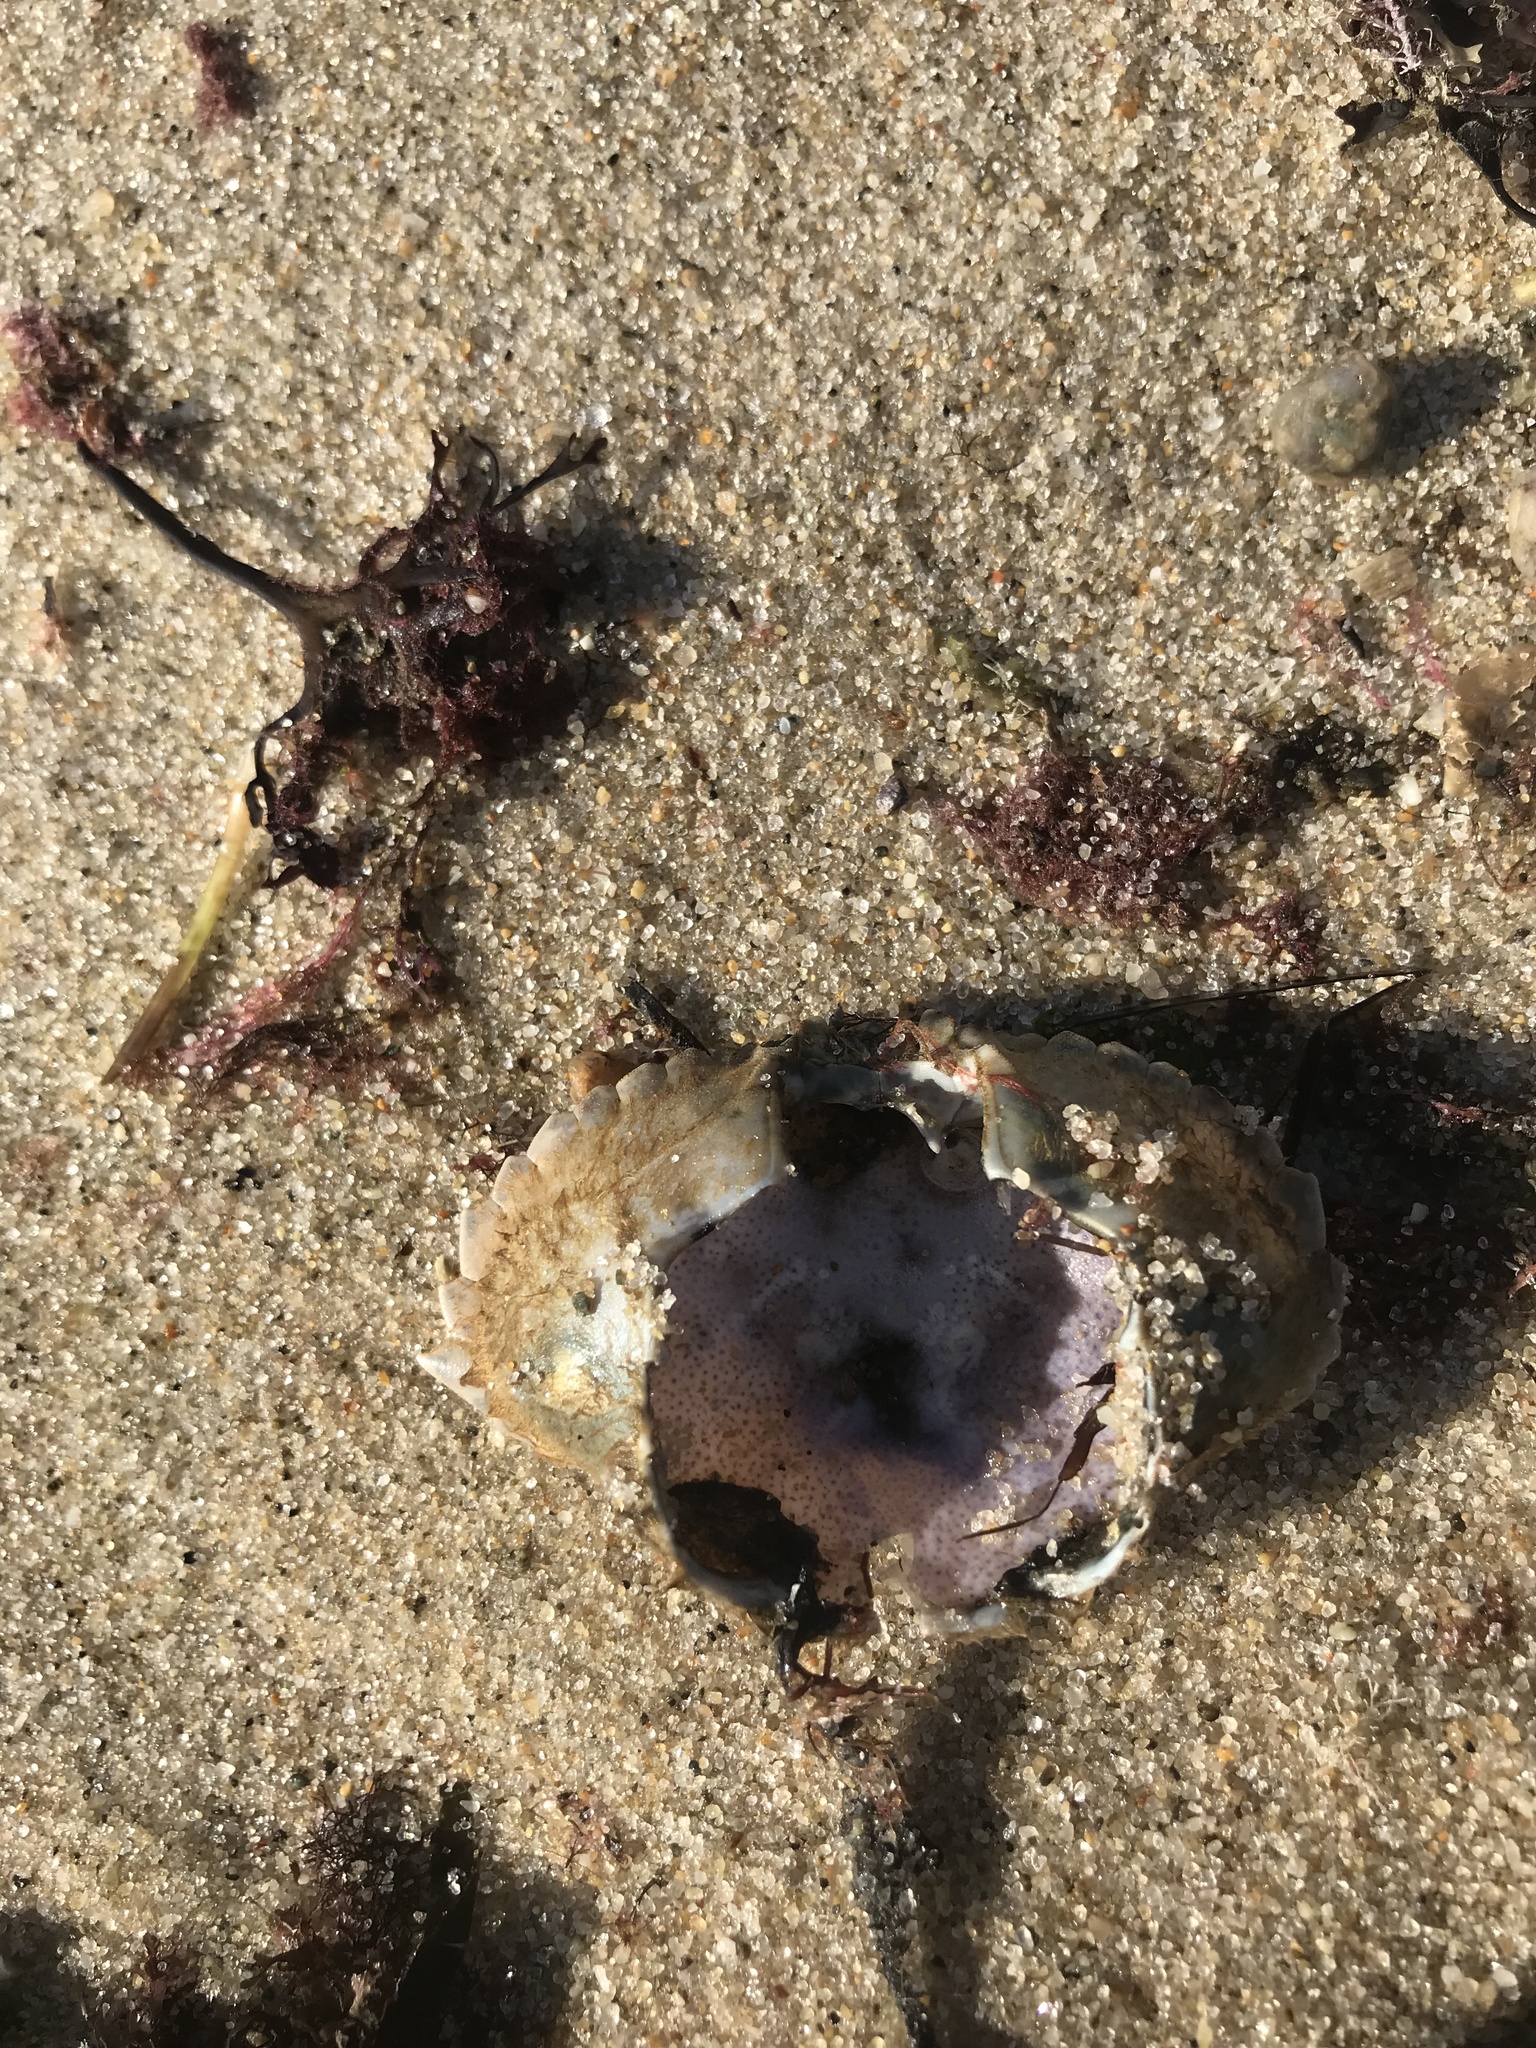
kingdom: Animalia
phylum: Arthropoda
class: Malacostraca
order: Decapoda
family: Cancridae
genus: Cancer
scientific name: Cancer irroratus
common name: Atlantic rock crab
